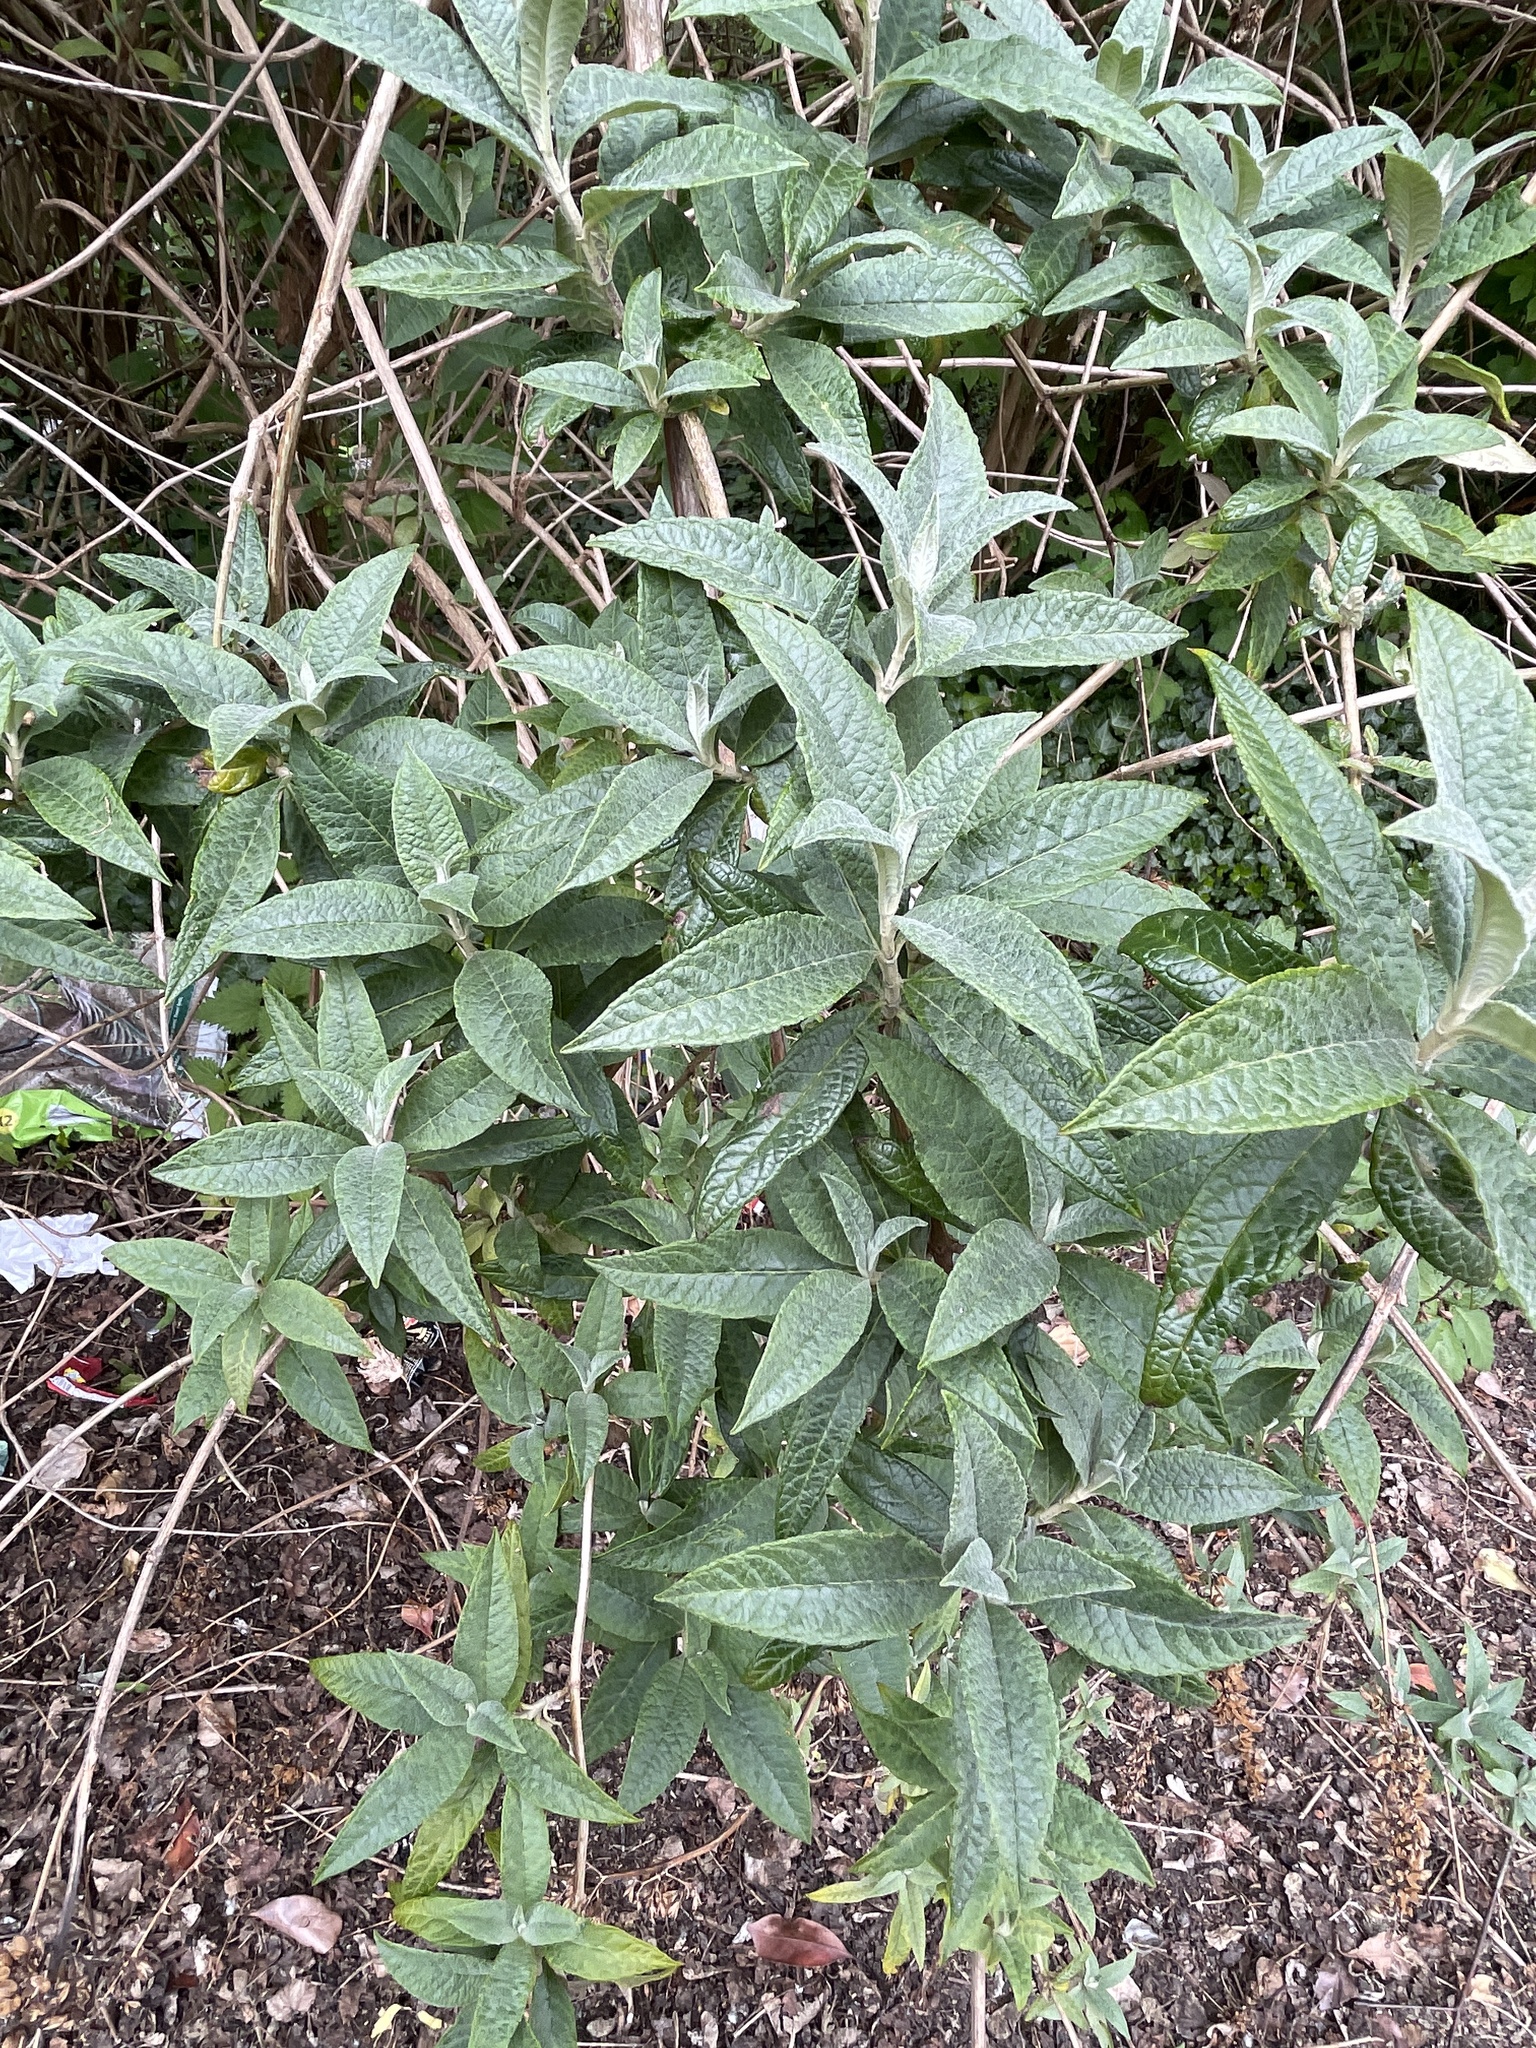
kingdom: Plantae
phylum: Tracheophyta
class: Magnoliopsida
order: Lamiales
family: Scrophulariaceae
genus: Buddleja
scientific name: Buddleja davidii
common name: Butterfly-bush
